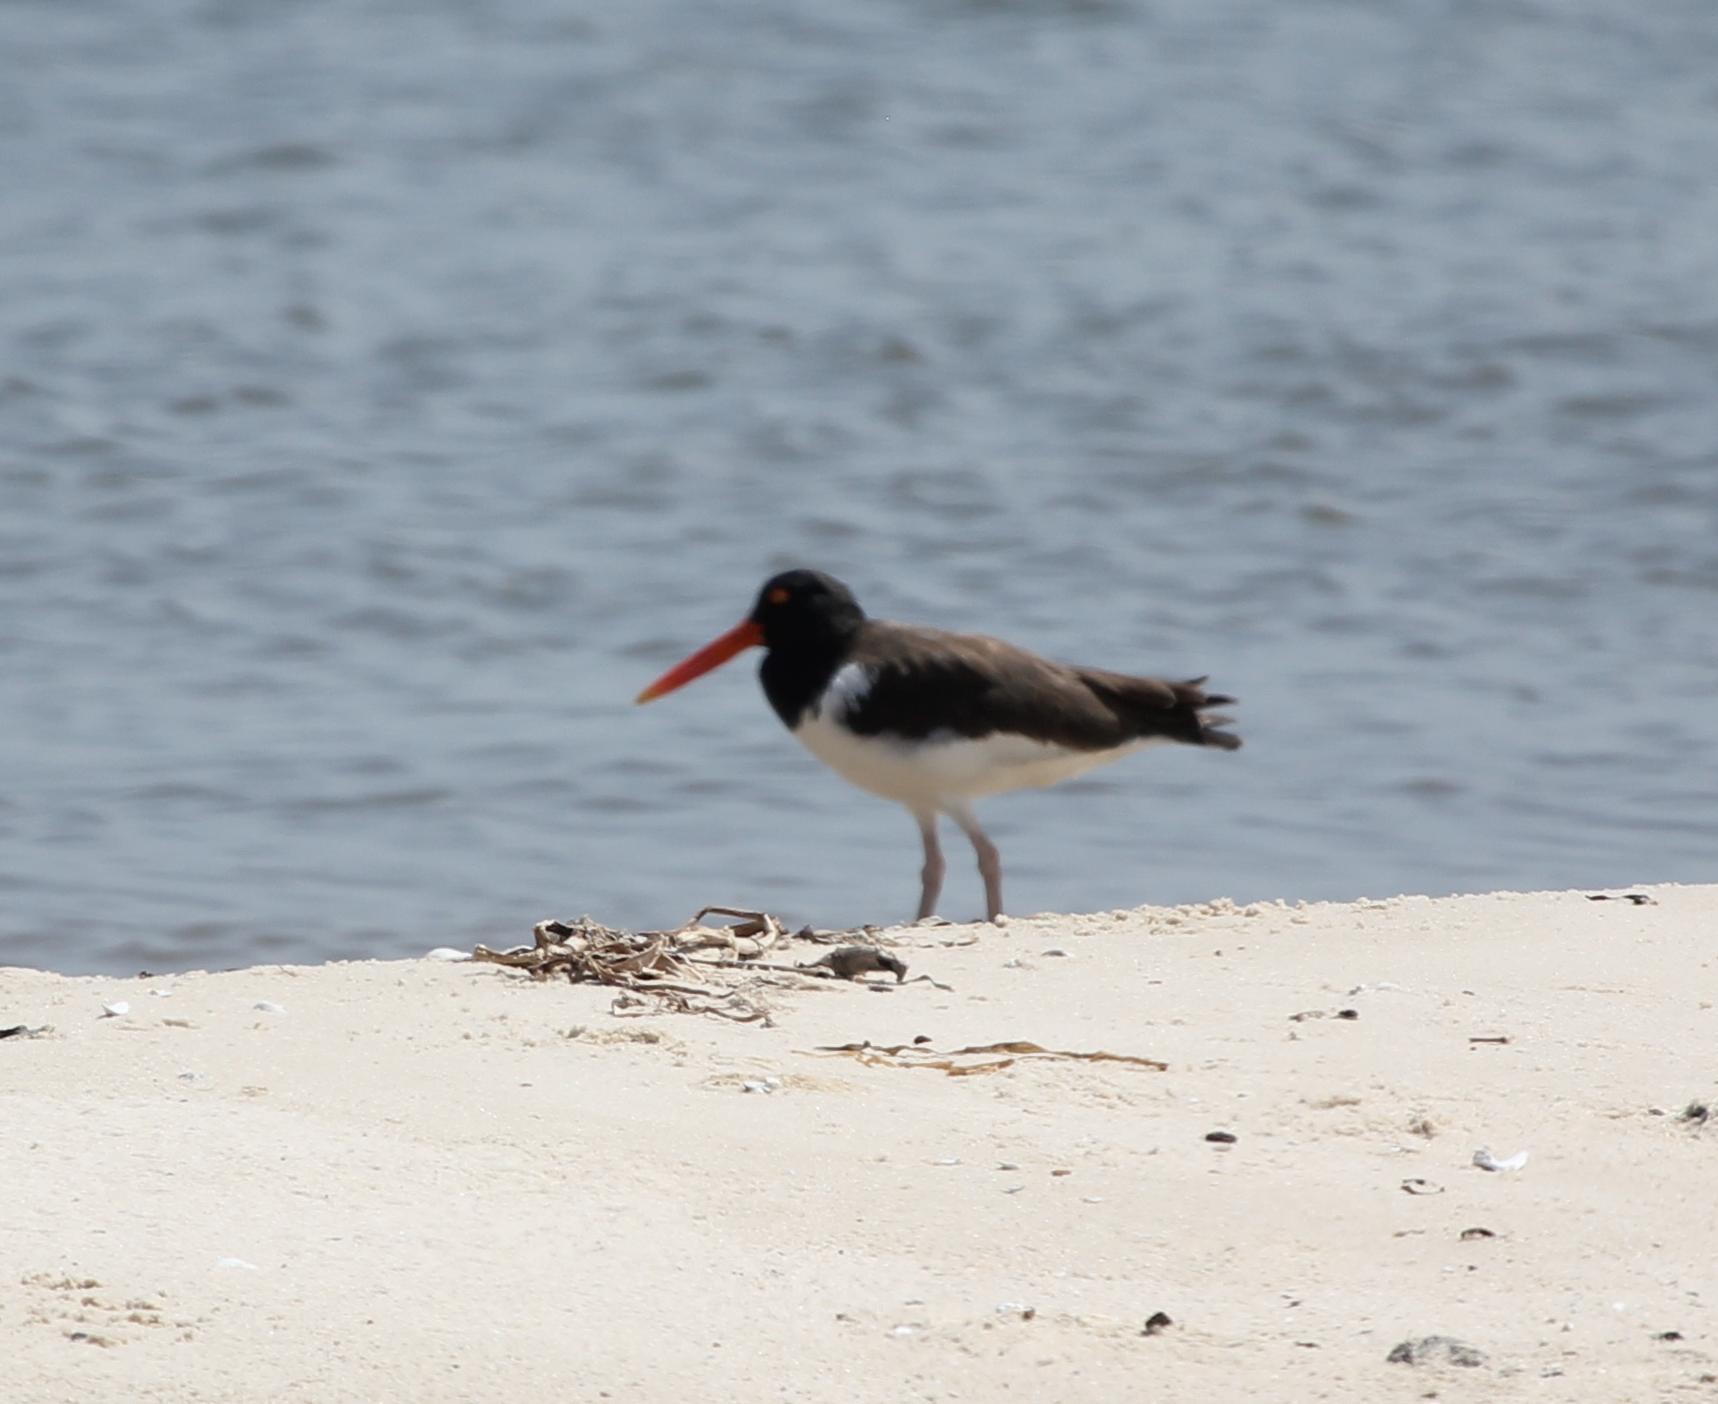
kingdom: Animalia
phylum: Chordata
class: Aves
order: Charadriiformes
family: Haematopodidae
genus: Haematopus
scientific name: Haematopus palliatus
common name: American oystercatcher
